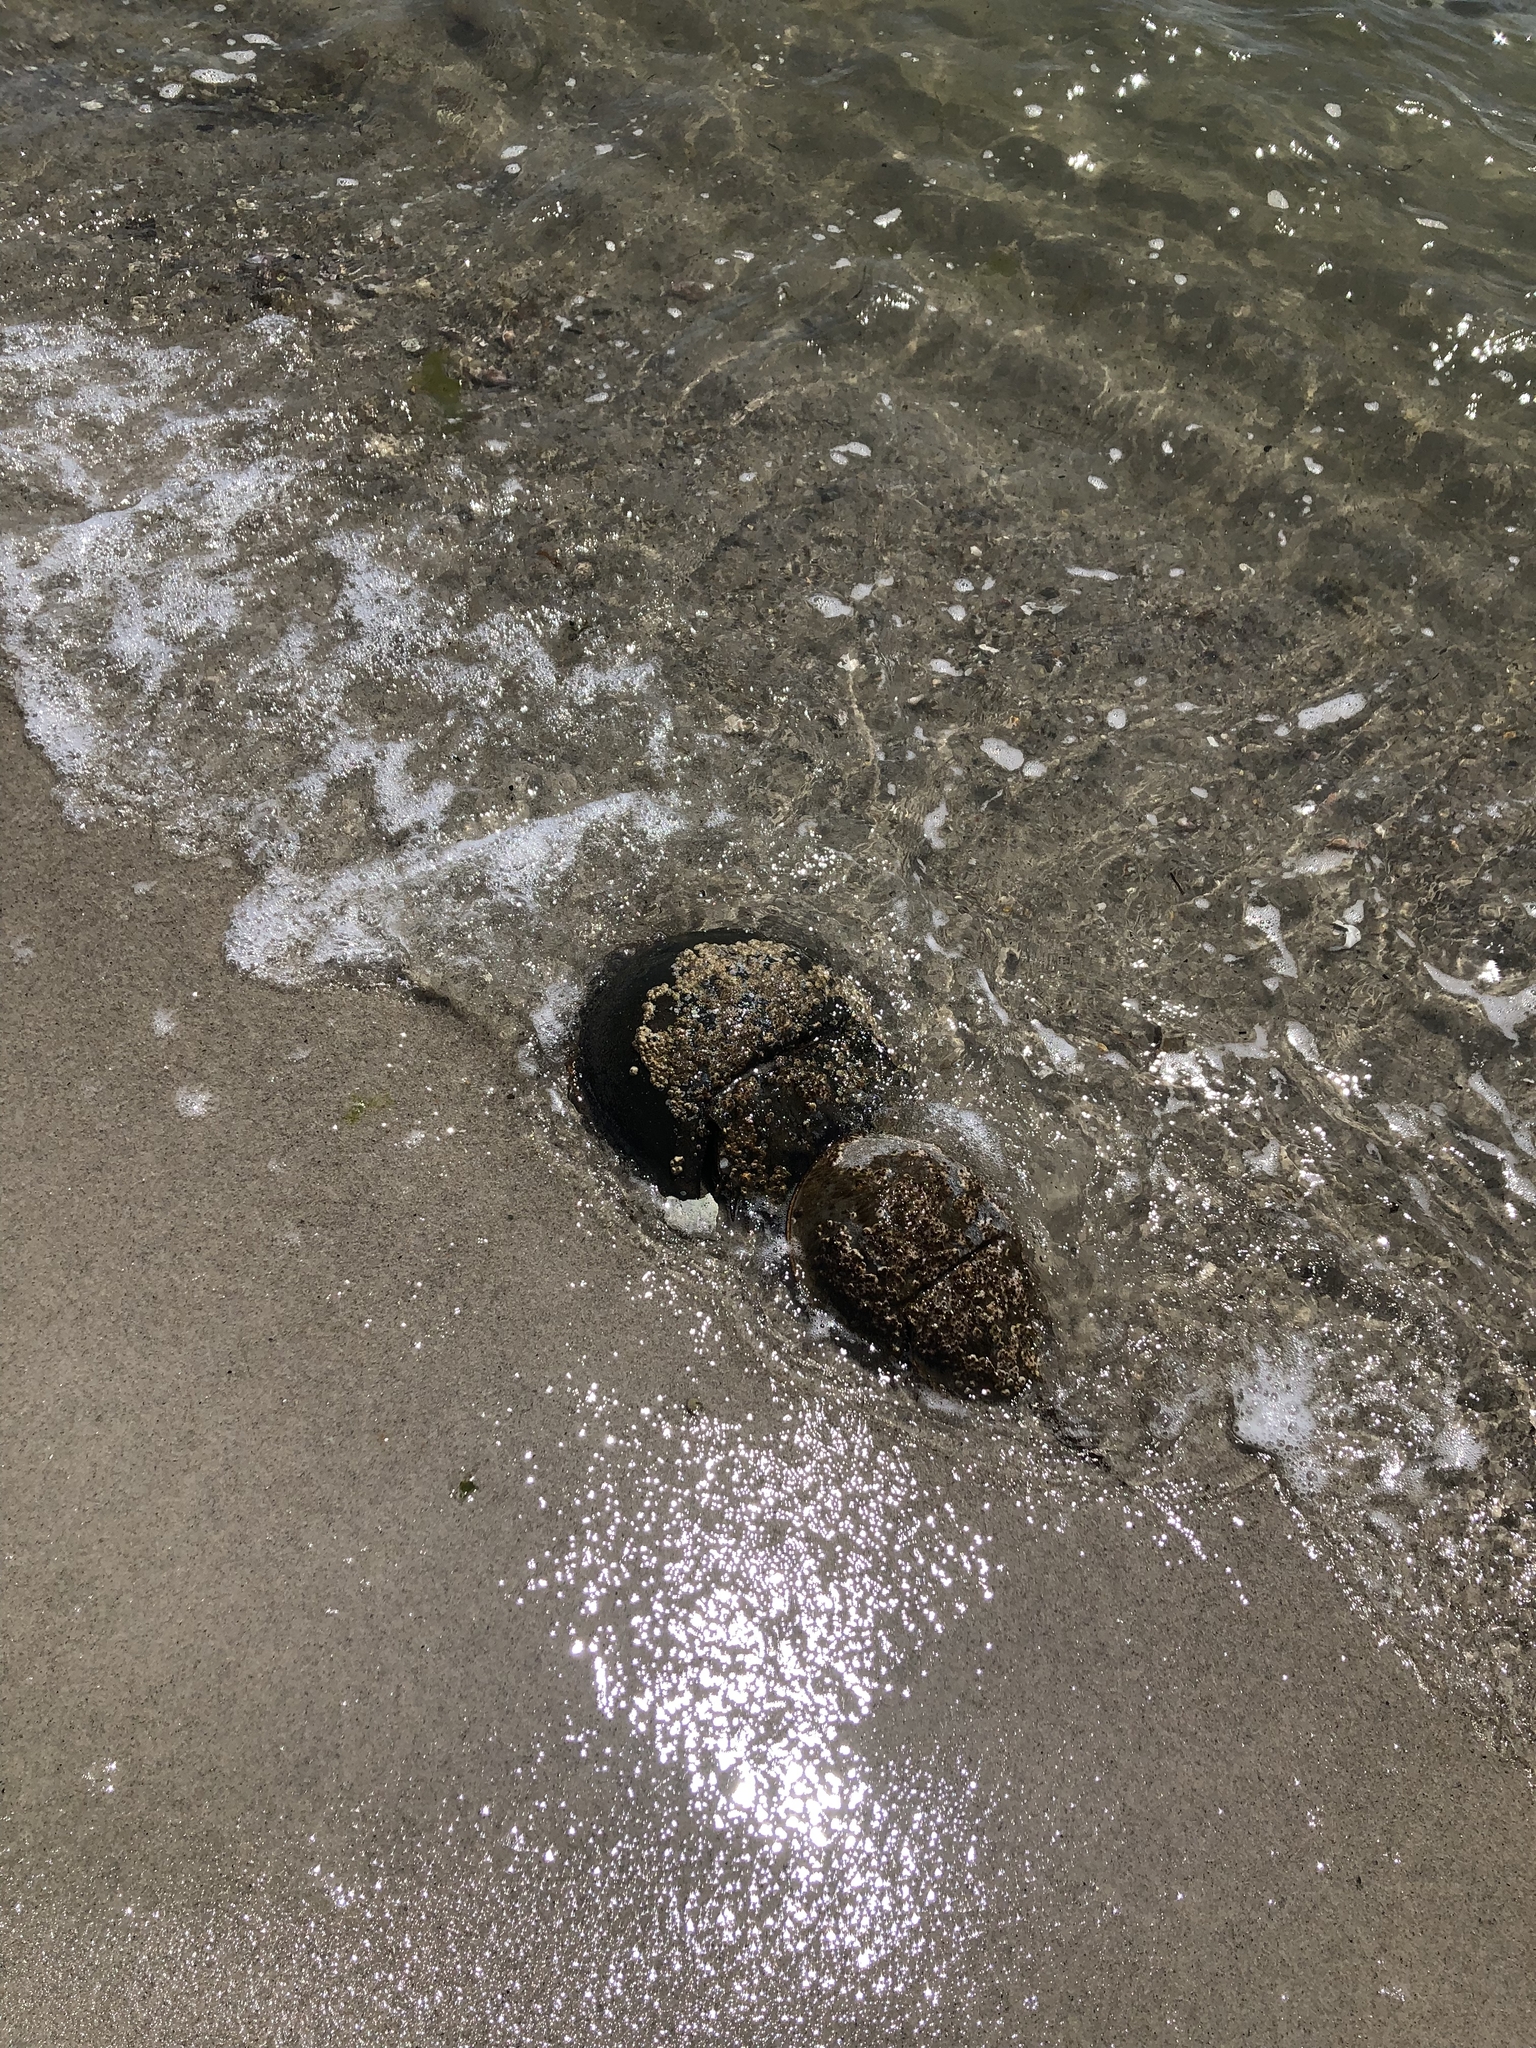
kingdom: Animalia
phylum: Arthropoda
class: Merostomata
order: Xiphosurida
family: Limulidae
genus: Limulus
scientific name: Limulus polyphemus
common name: Horseshoe crab
